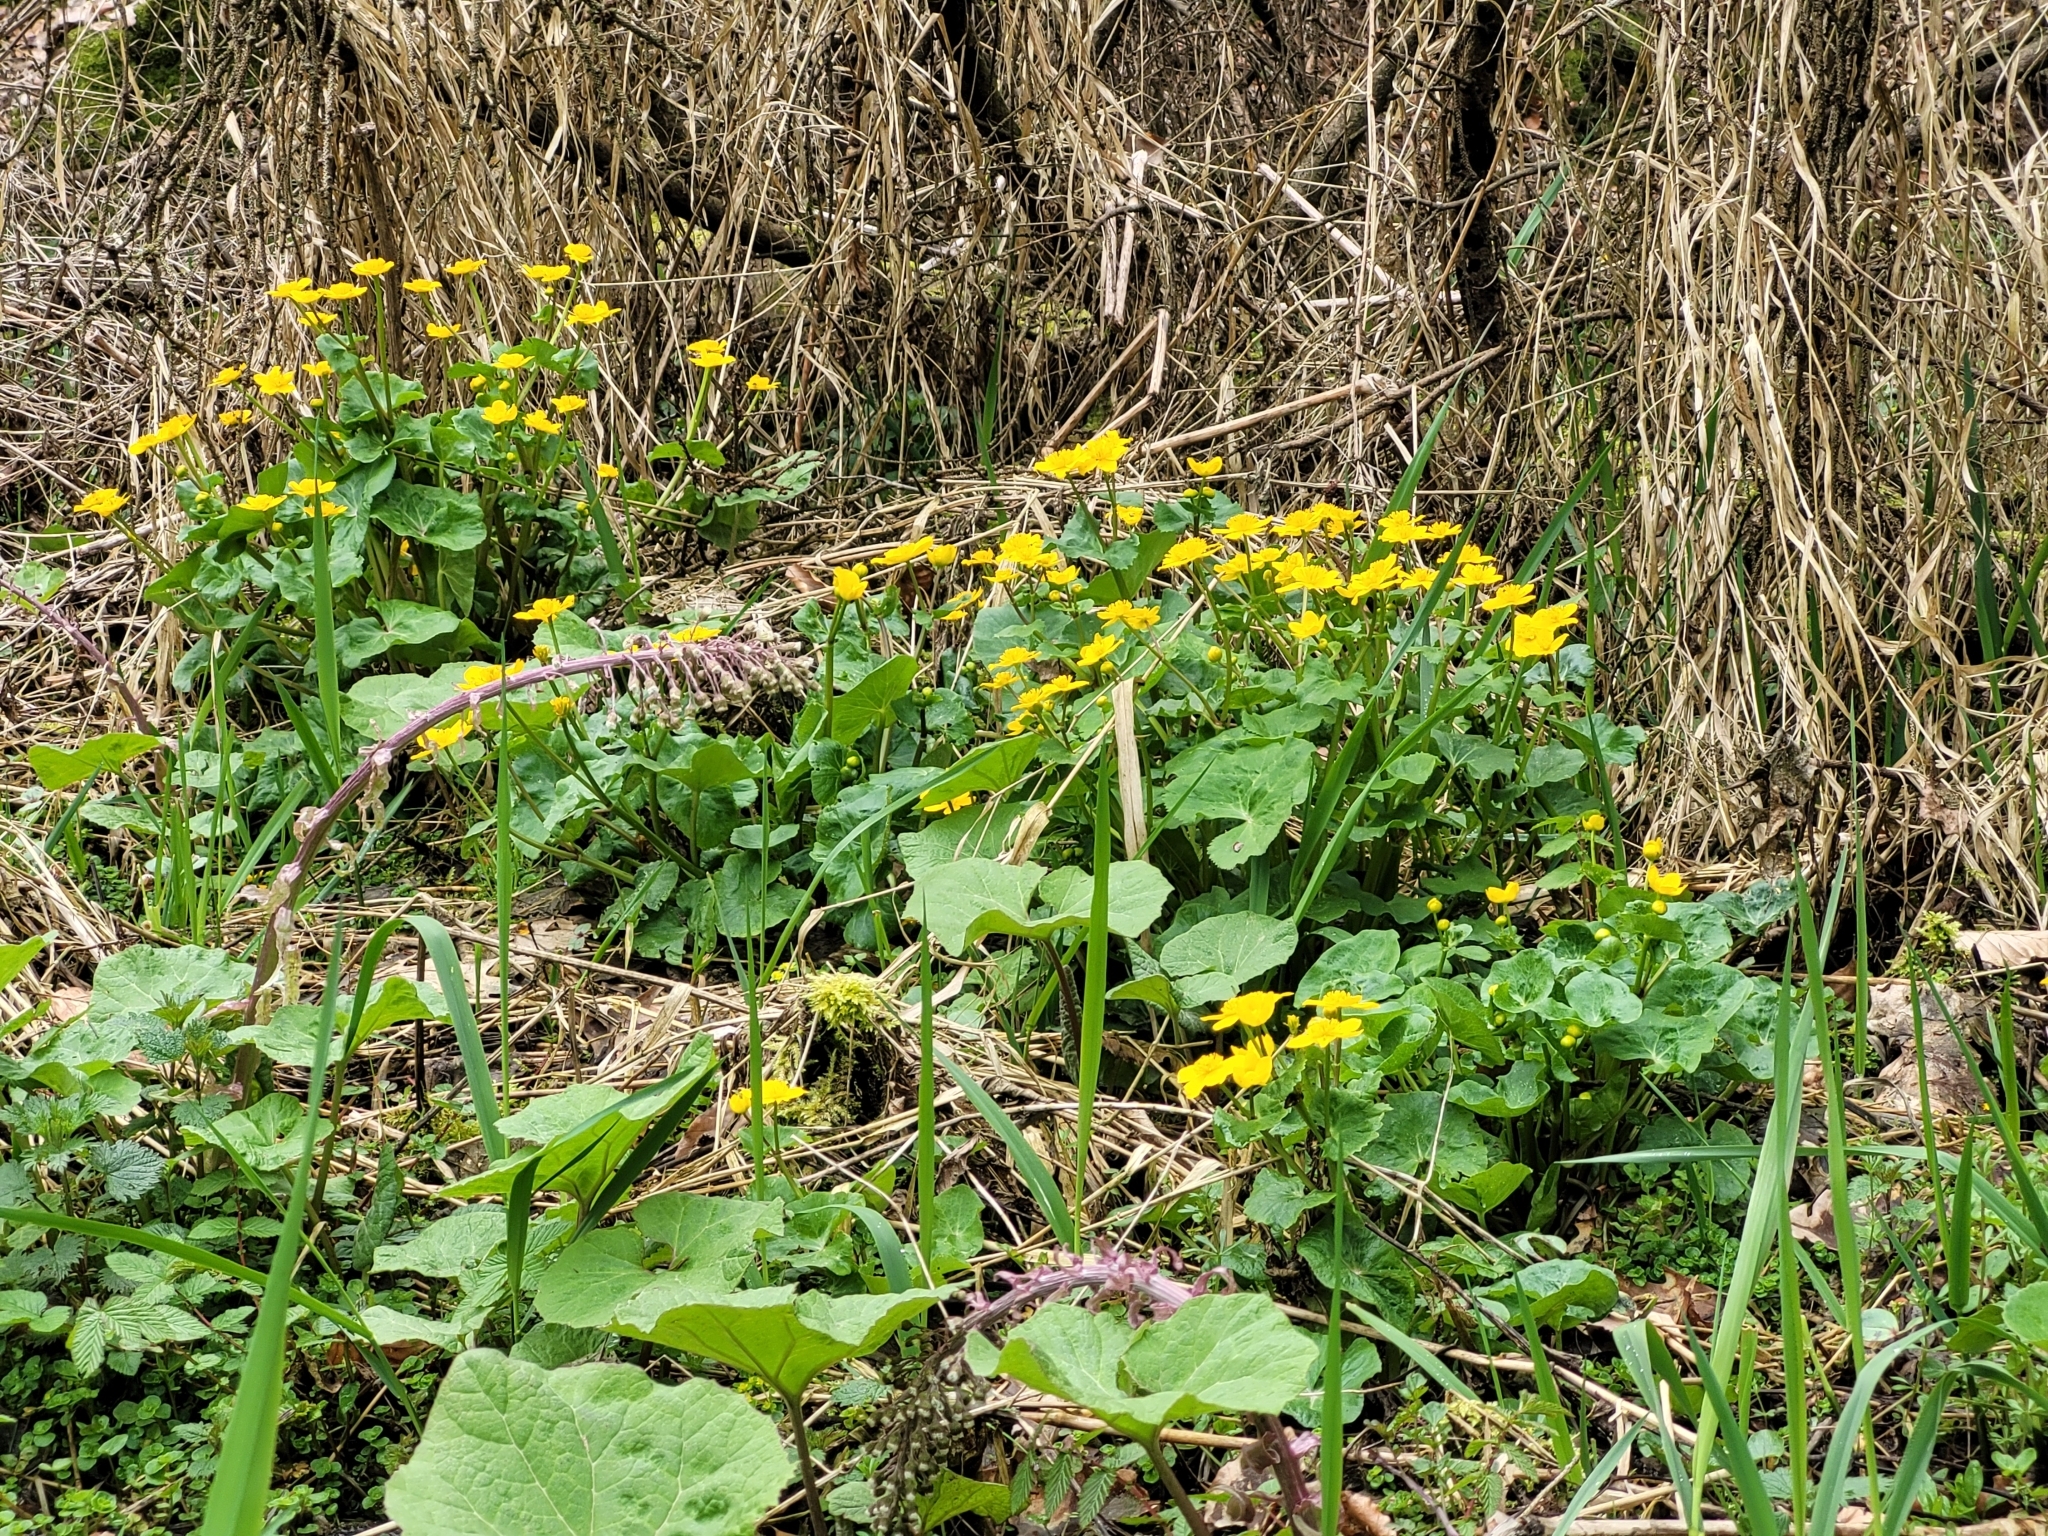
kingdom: Plantae
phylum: Tracheophyta
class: Magnoliopsida
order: Ranunculales
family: Ranunculaceae
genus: Caltha
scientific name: Caltha palustris
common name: Marsh marigold
